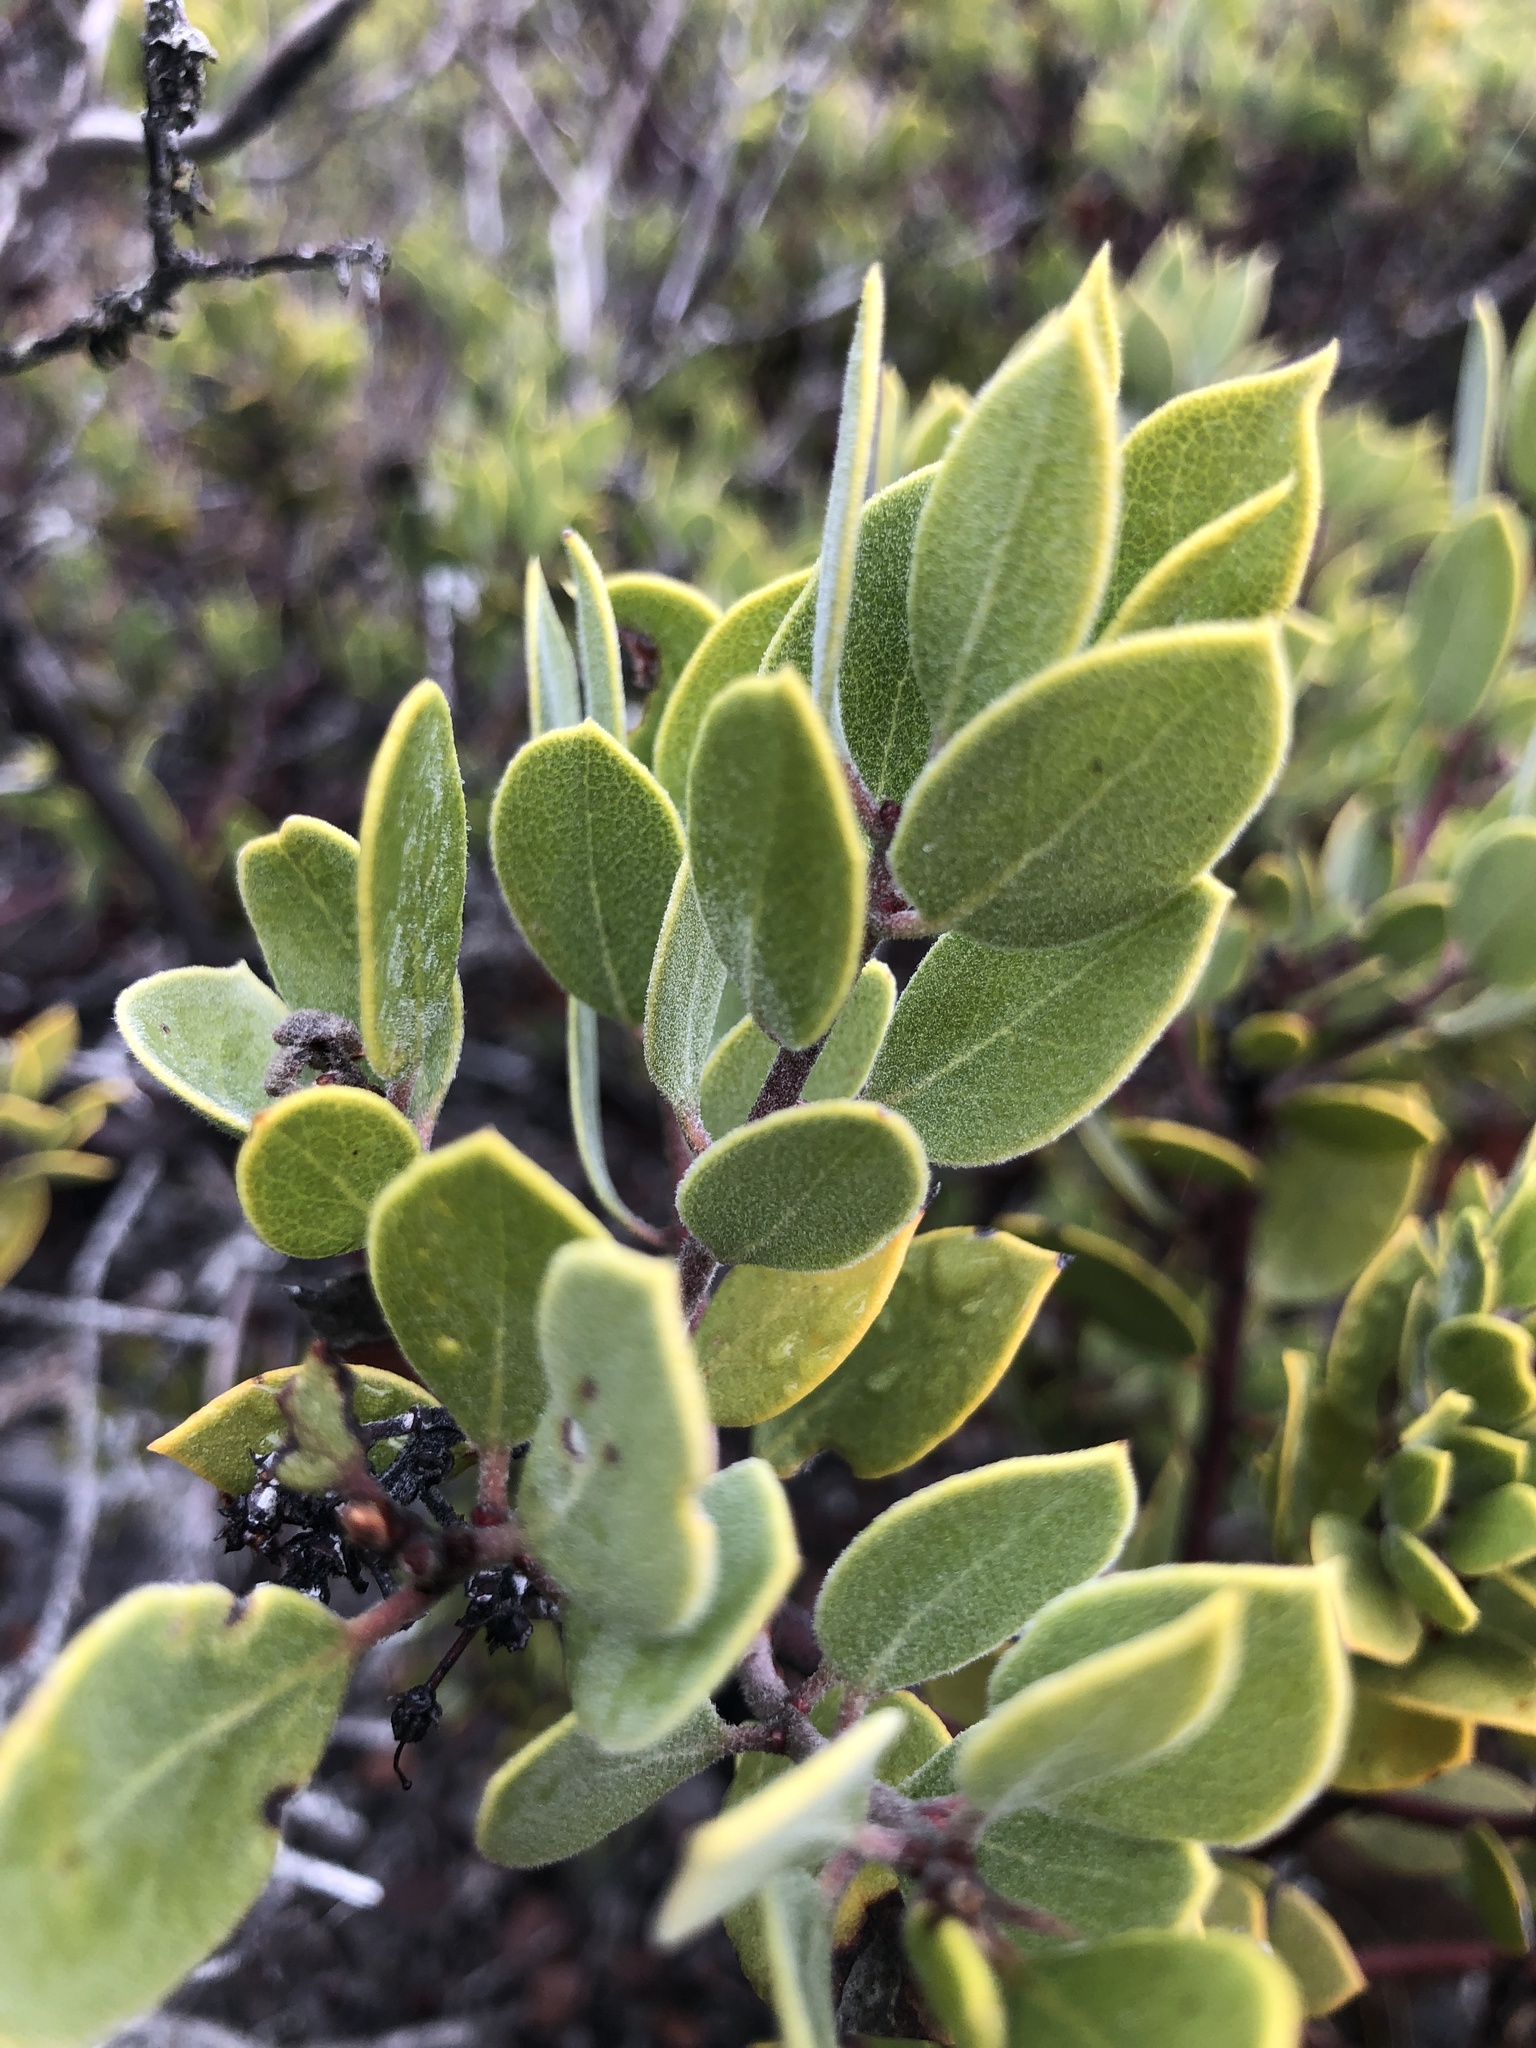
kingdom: Plantae
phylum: Tracheophyta
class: Magnoliopsida
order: Ericales
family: Ericaceae
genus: Arctostaphylos
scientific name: Arctostaphylos montana
